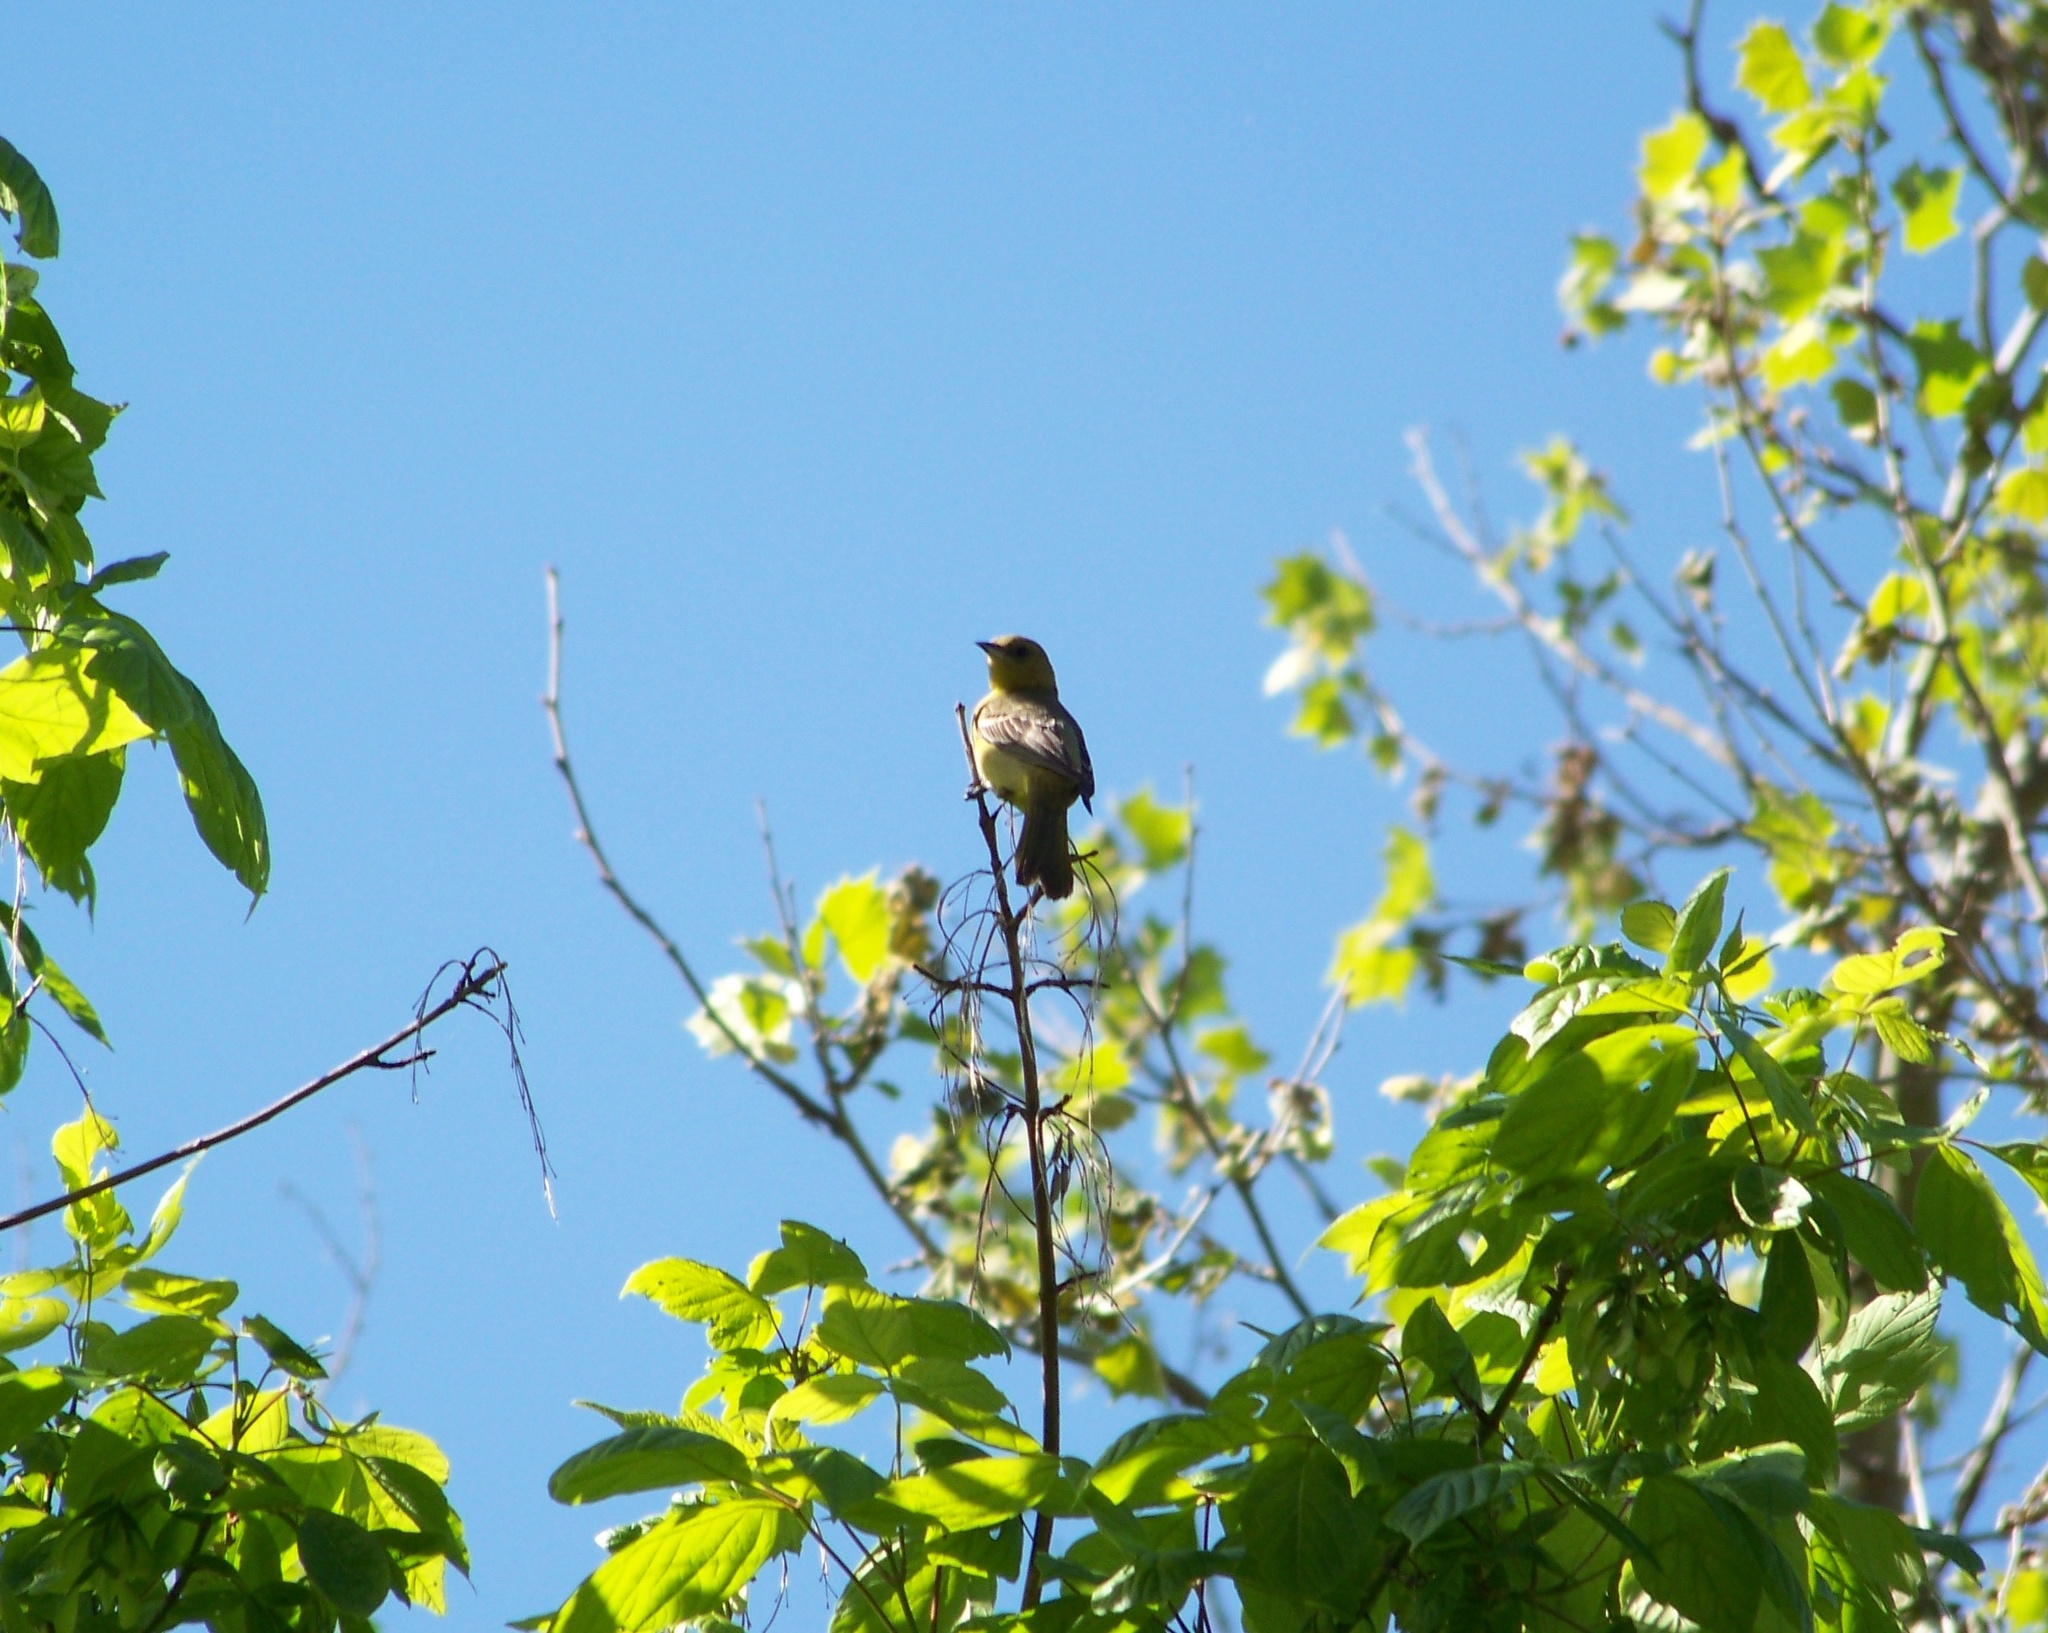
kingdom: Animalia
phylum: Chordata
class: Aves
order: Passeriformes
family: Icteridae
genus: Icterus
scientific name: Icterus spurius
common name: Orchard oriole
